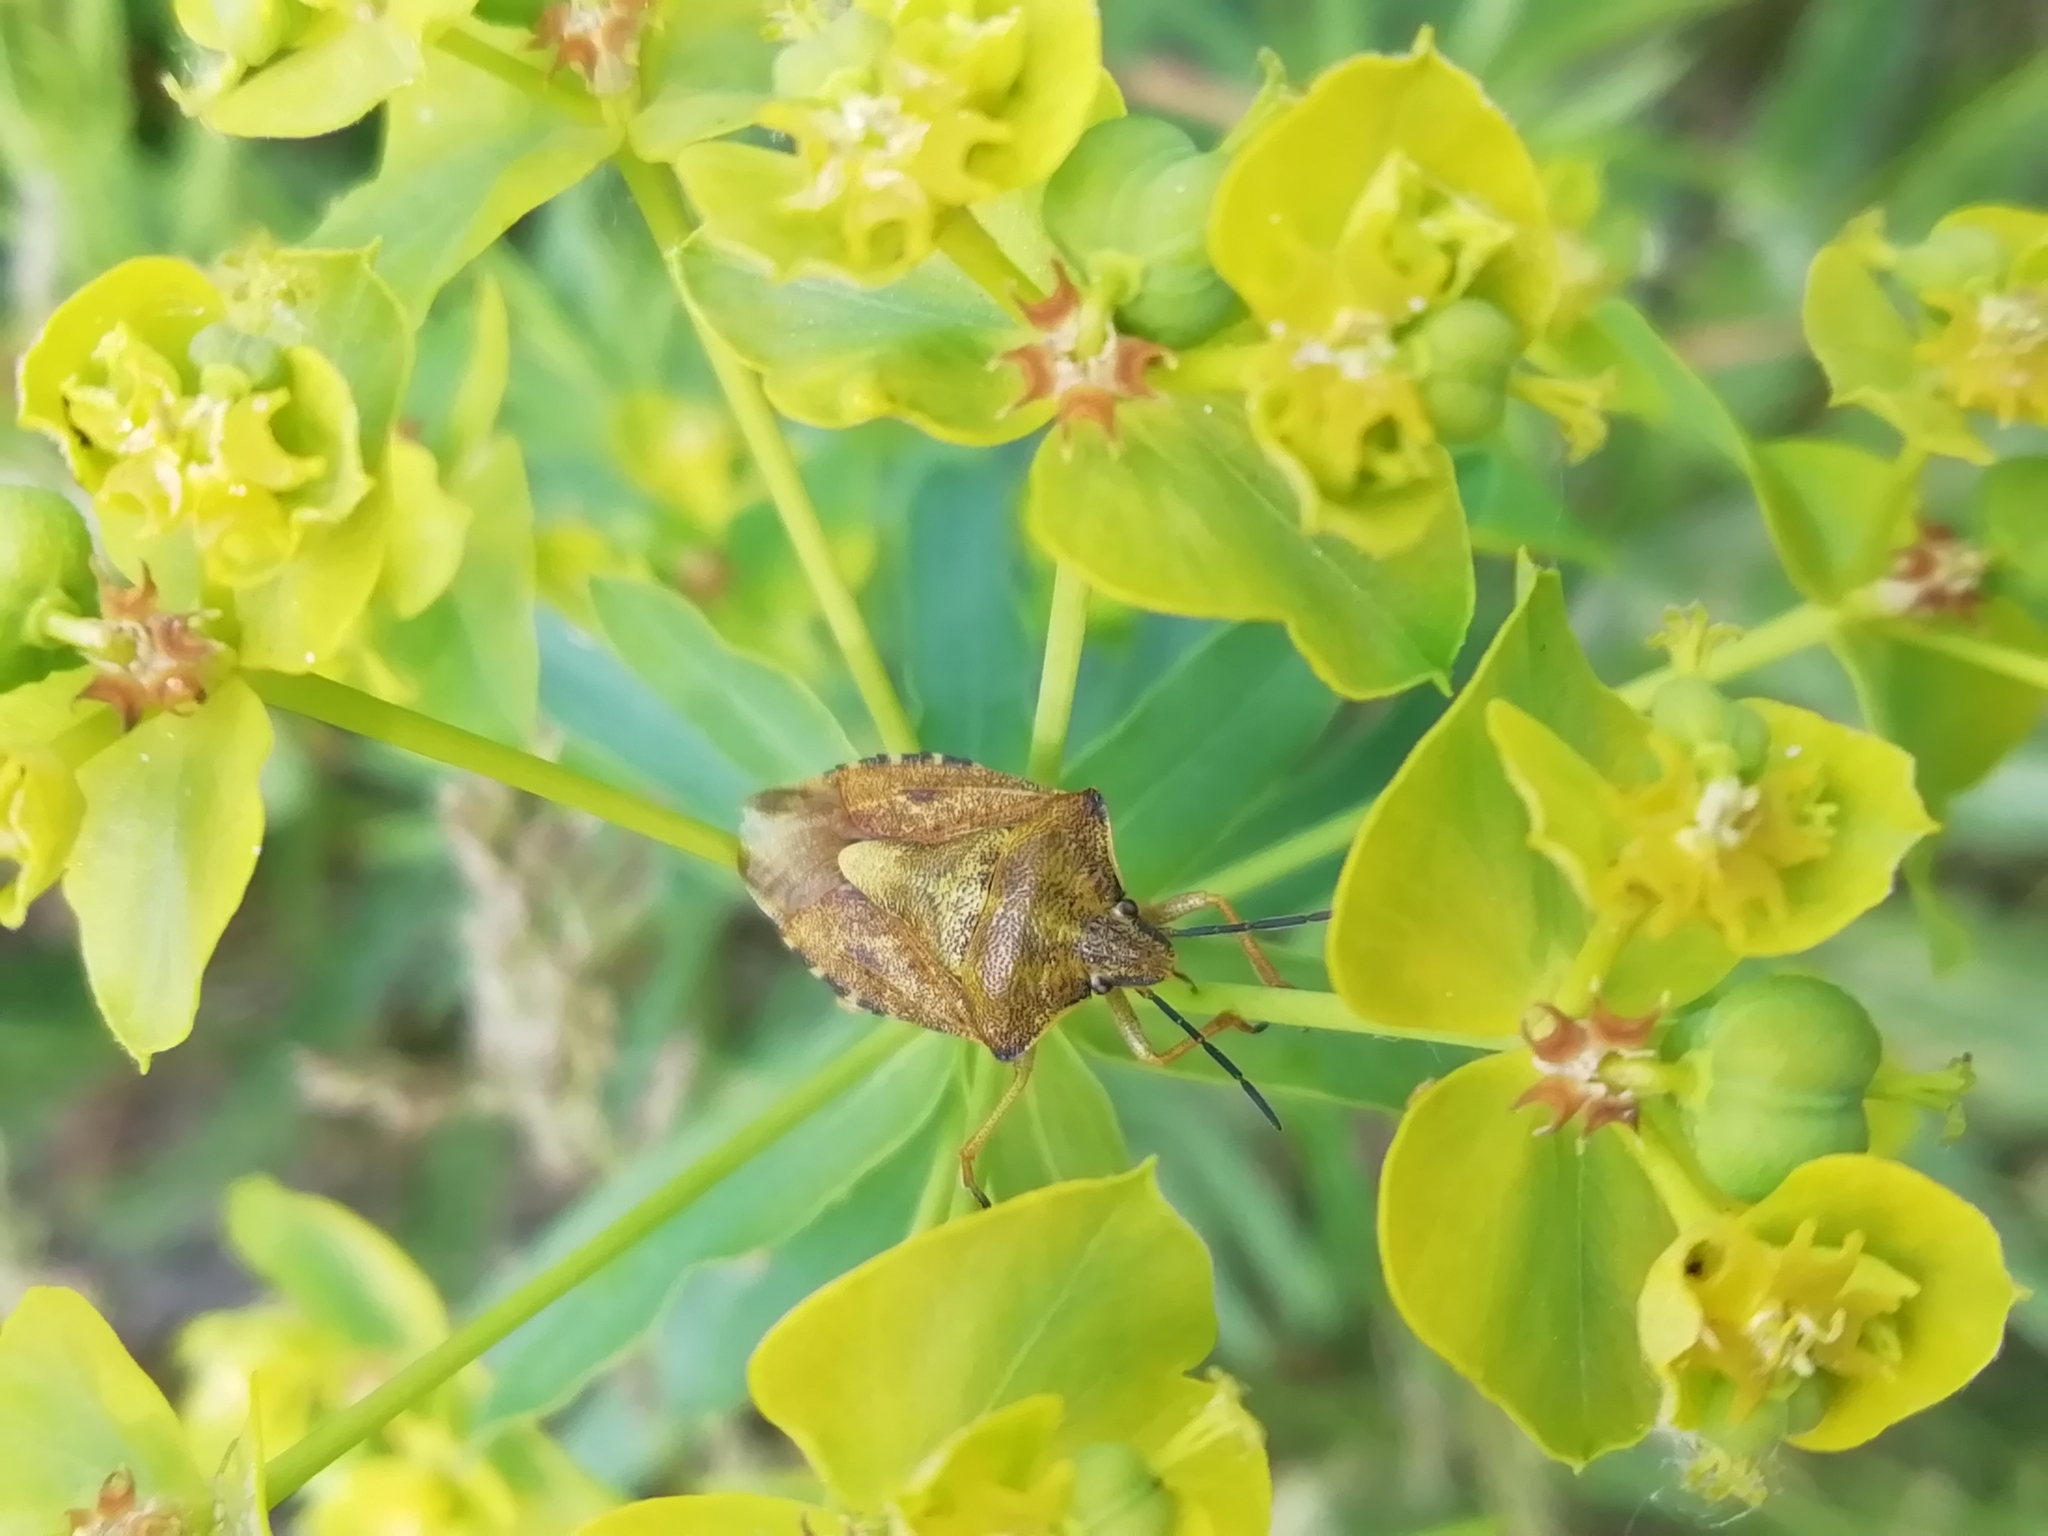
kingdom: Animalia
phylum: Arthropoda
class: Insecta
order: Hemiptera
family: Pentatomidae
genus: Carpocoris
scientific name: Carpocoris purpureipennis
